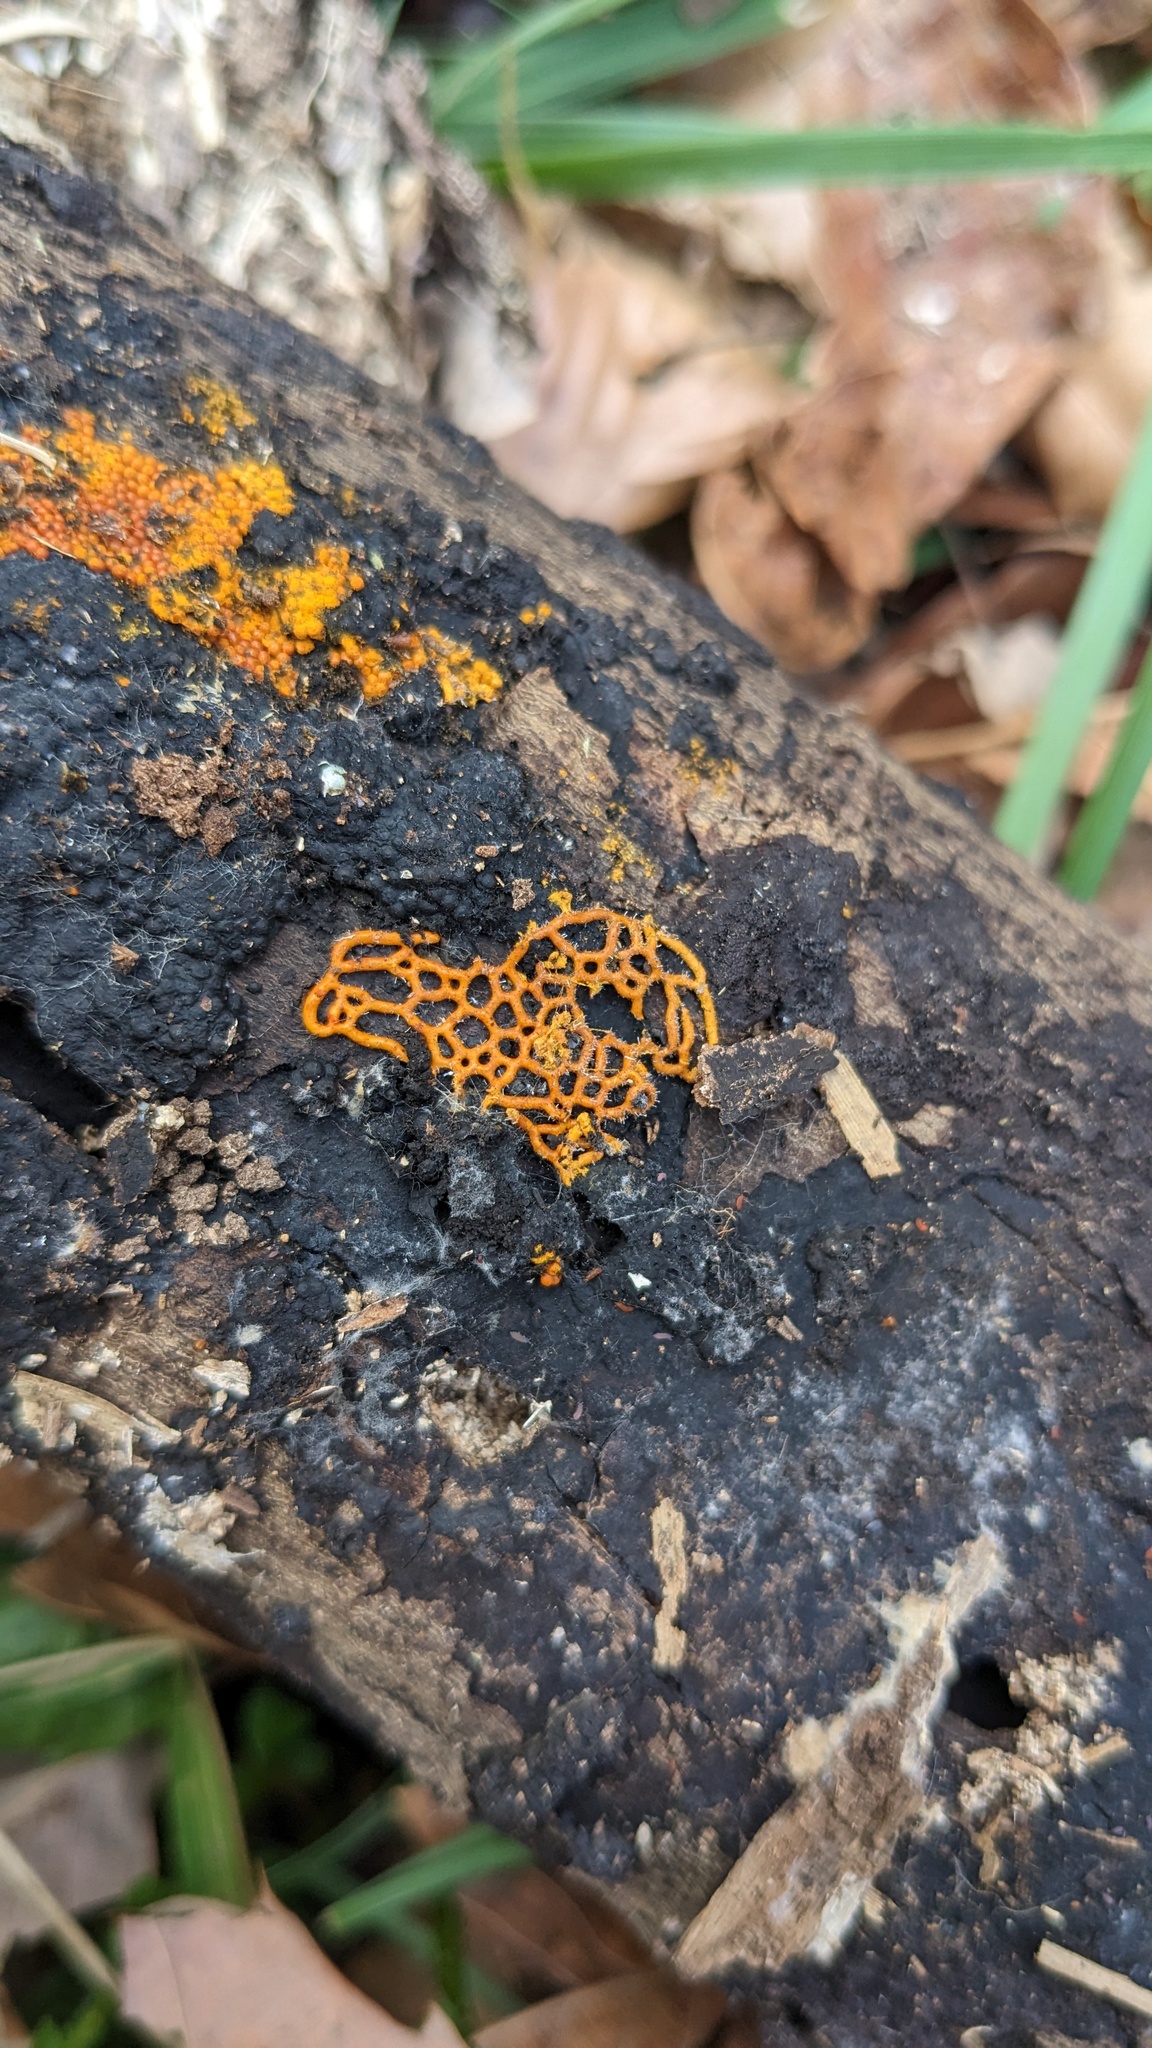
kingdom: Protozoa
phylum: Mycetozoa
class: Myxomycetes
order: Trichiales
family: Arcyriaceae
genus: Hemitrichia
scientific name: Hemitrichia serpula
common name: Pretzel slime mold
